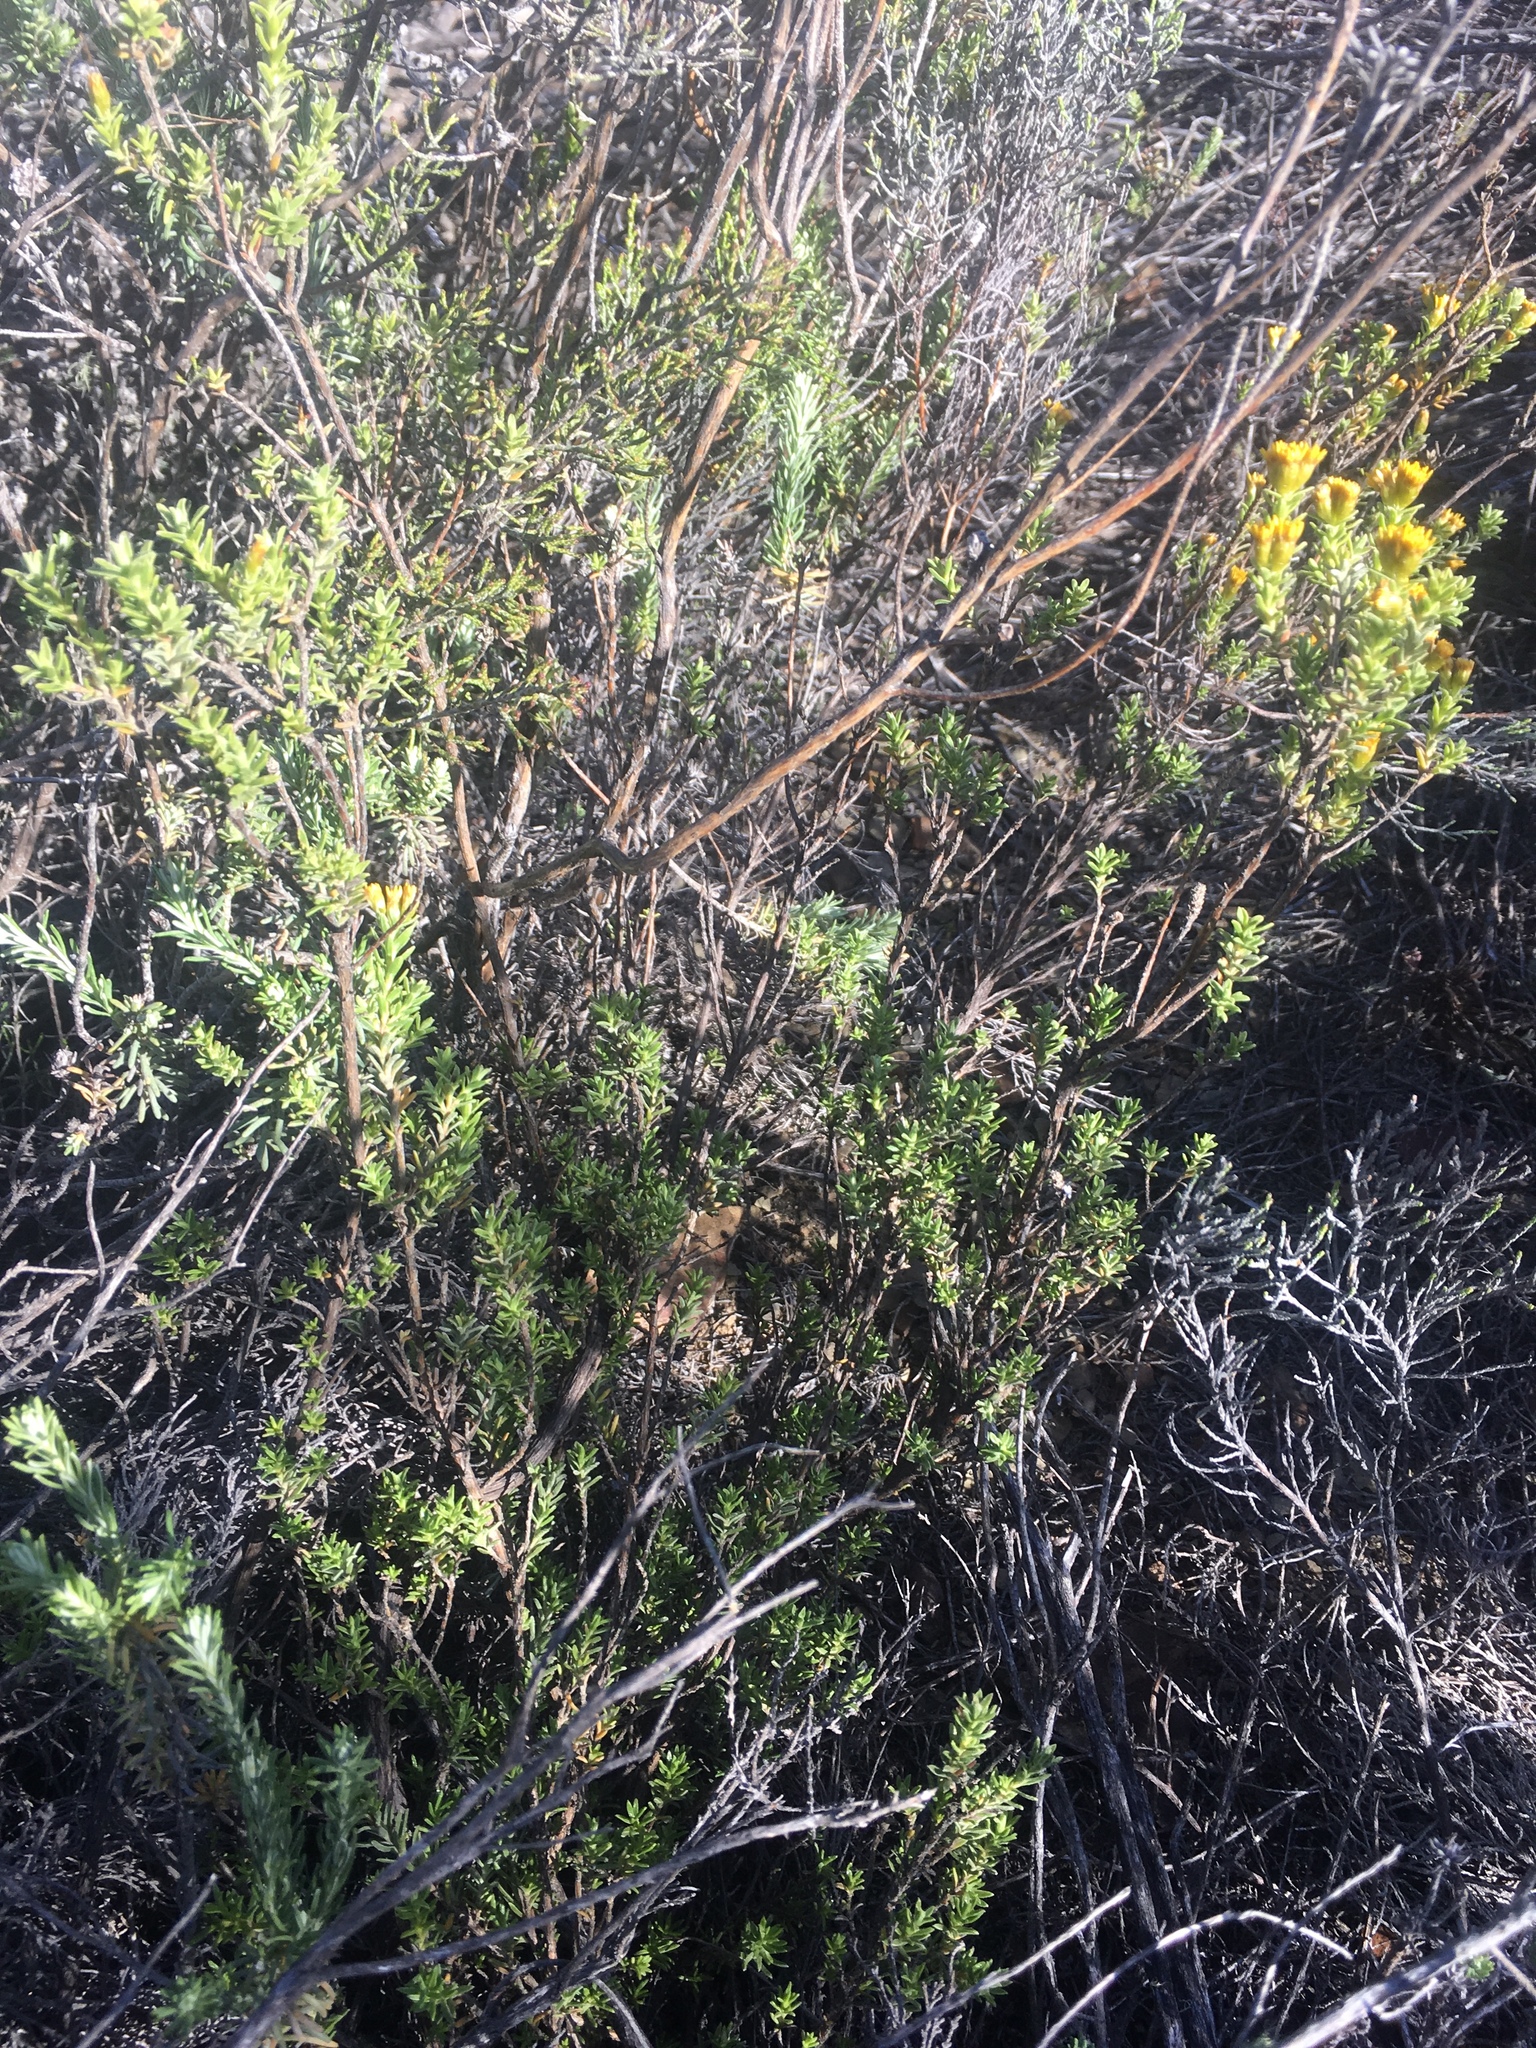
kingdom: Plantae
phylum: Tracheophyta
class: Magnoliopsida
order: Asterales
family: Asteraceae
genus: Oedera
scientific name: Oedera genistifolia
